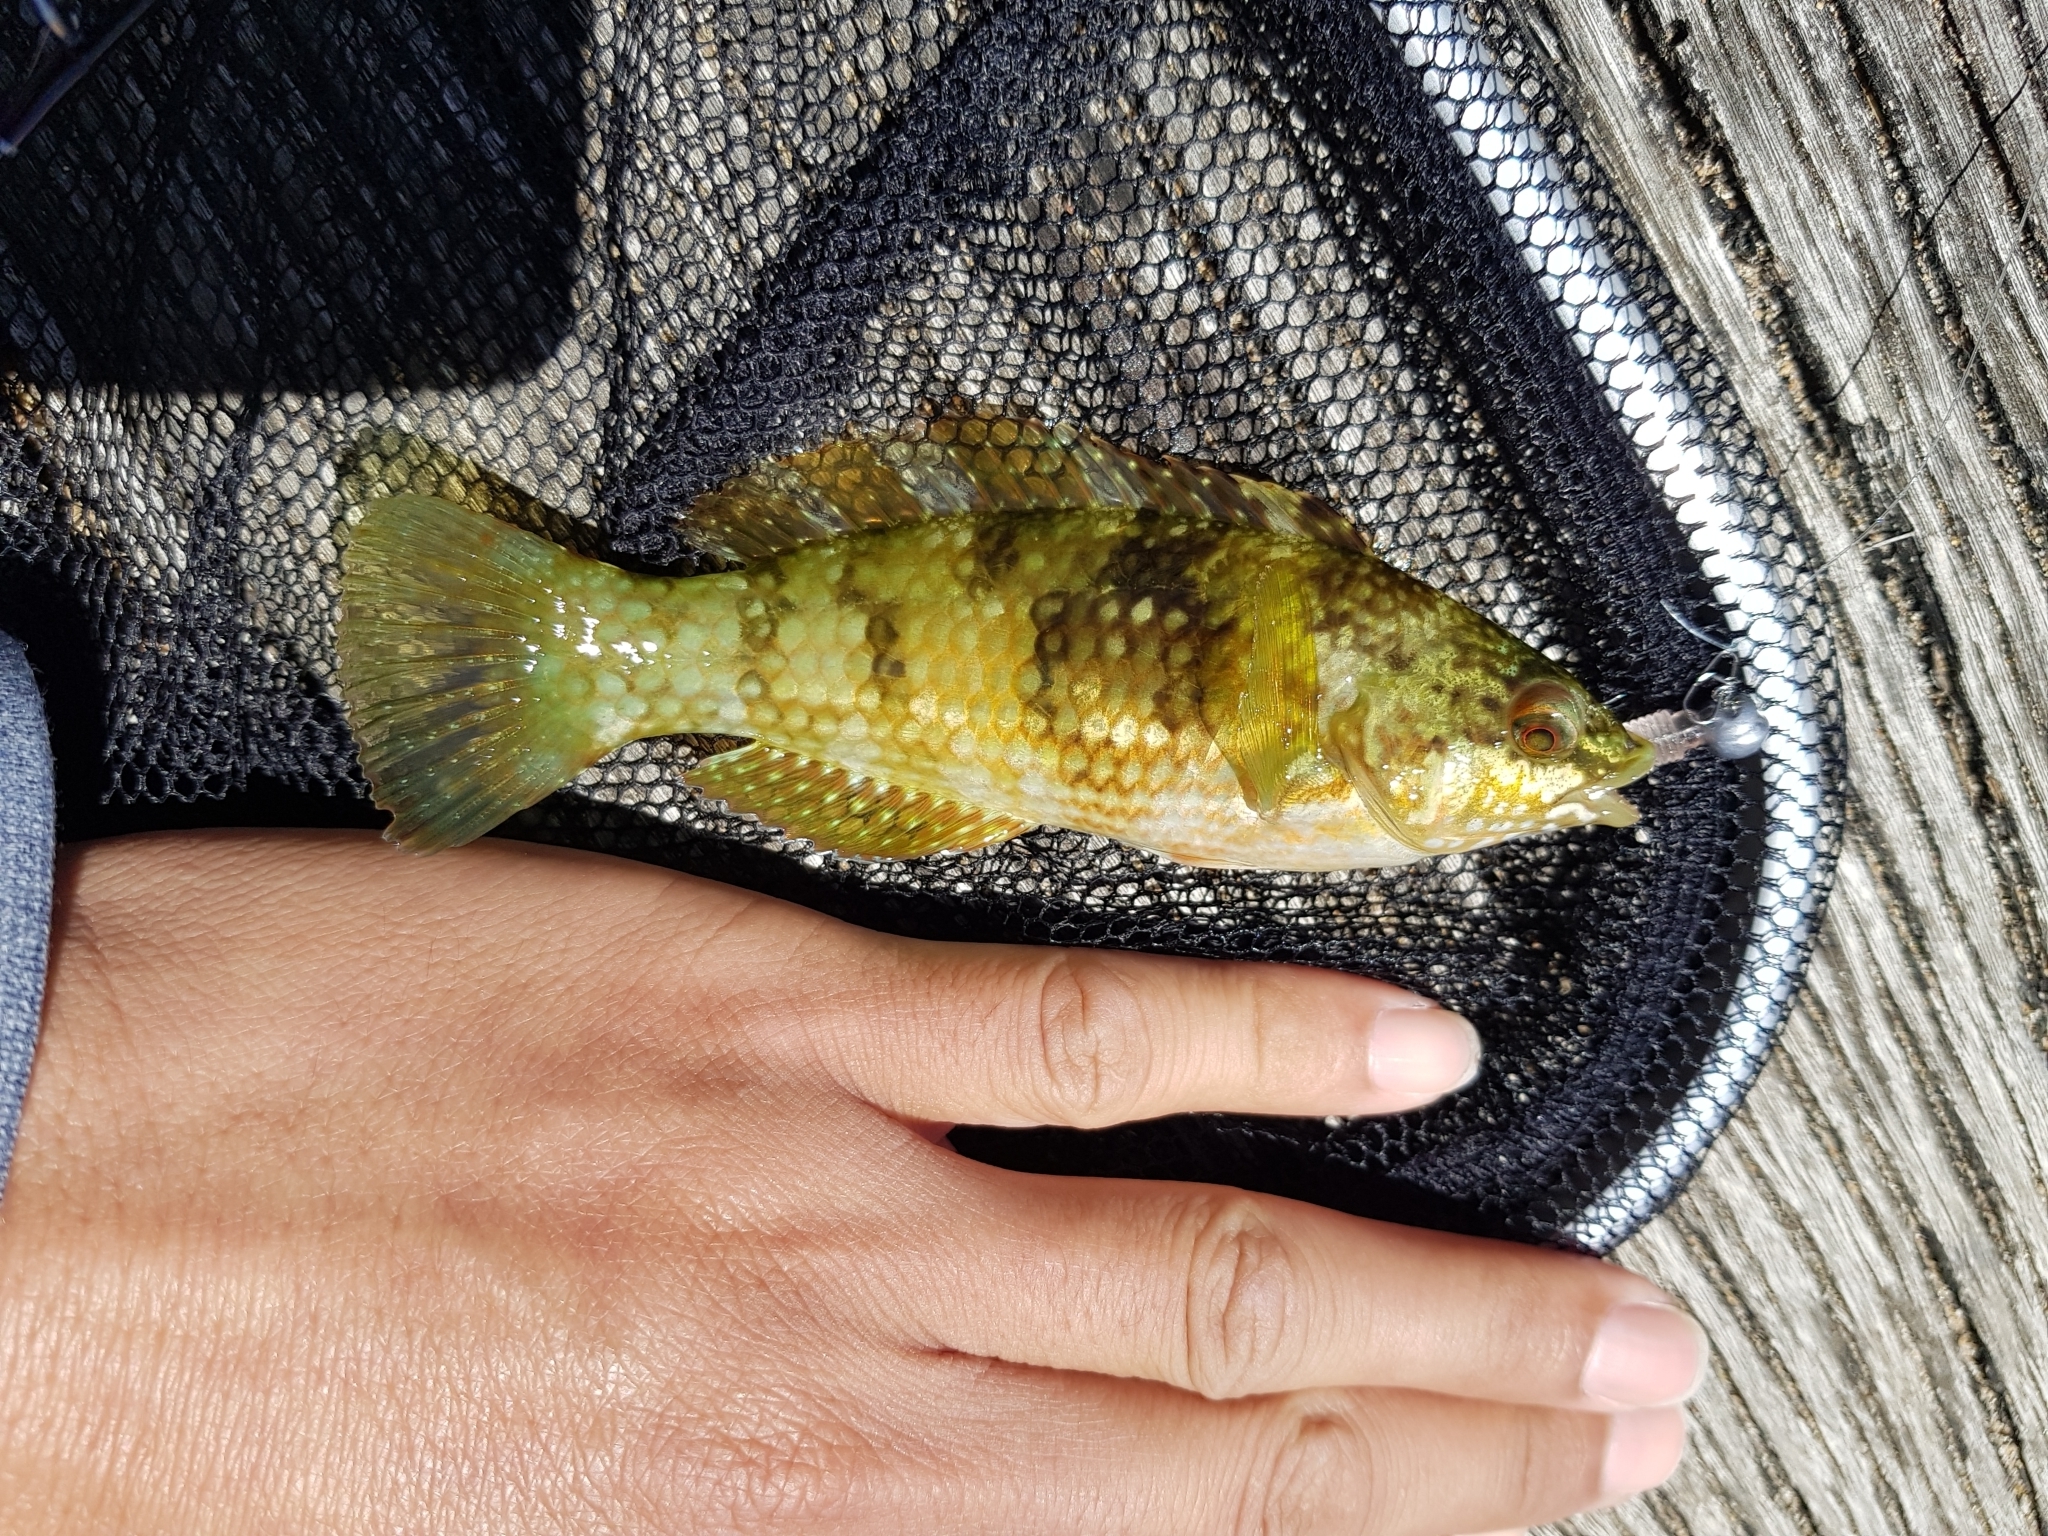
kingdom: Animalia
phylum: Chordata
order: Perciformes
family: Labridae
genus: Notolabrus
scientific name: Notolabrus tetricus
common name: Blue-throated parrotfish
